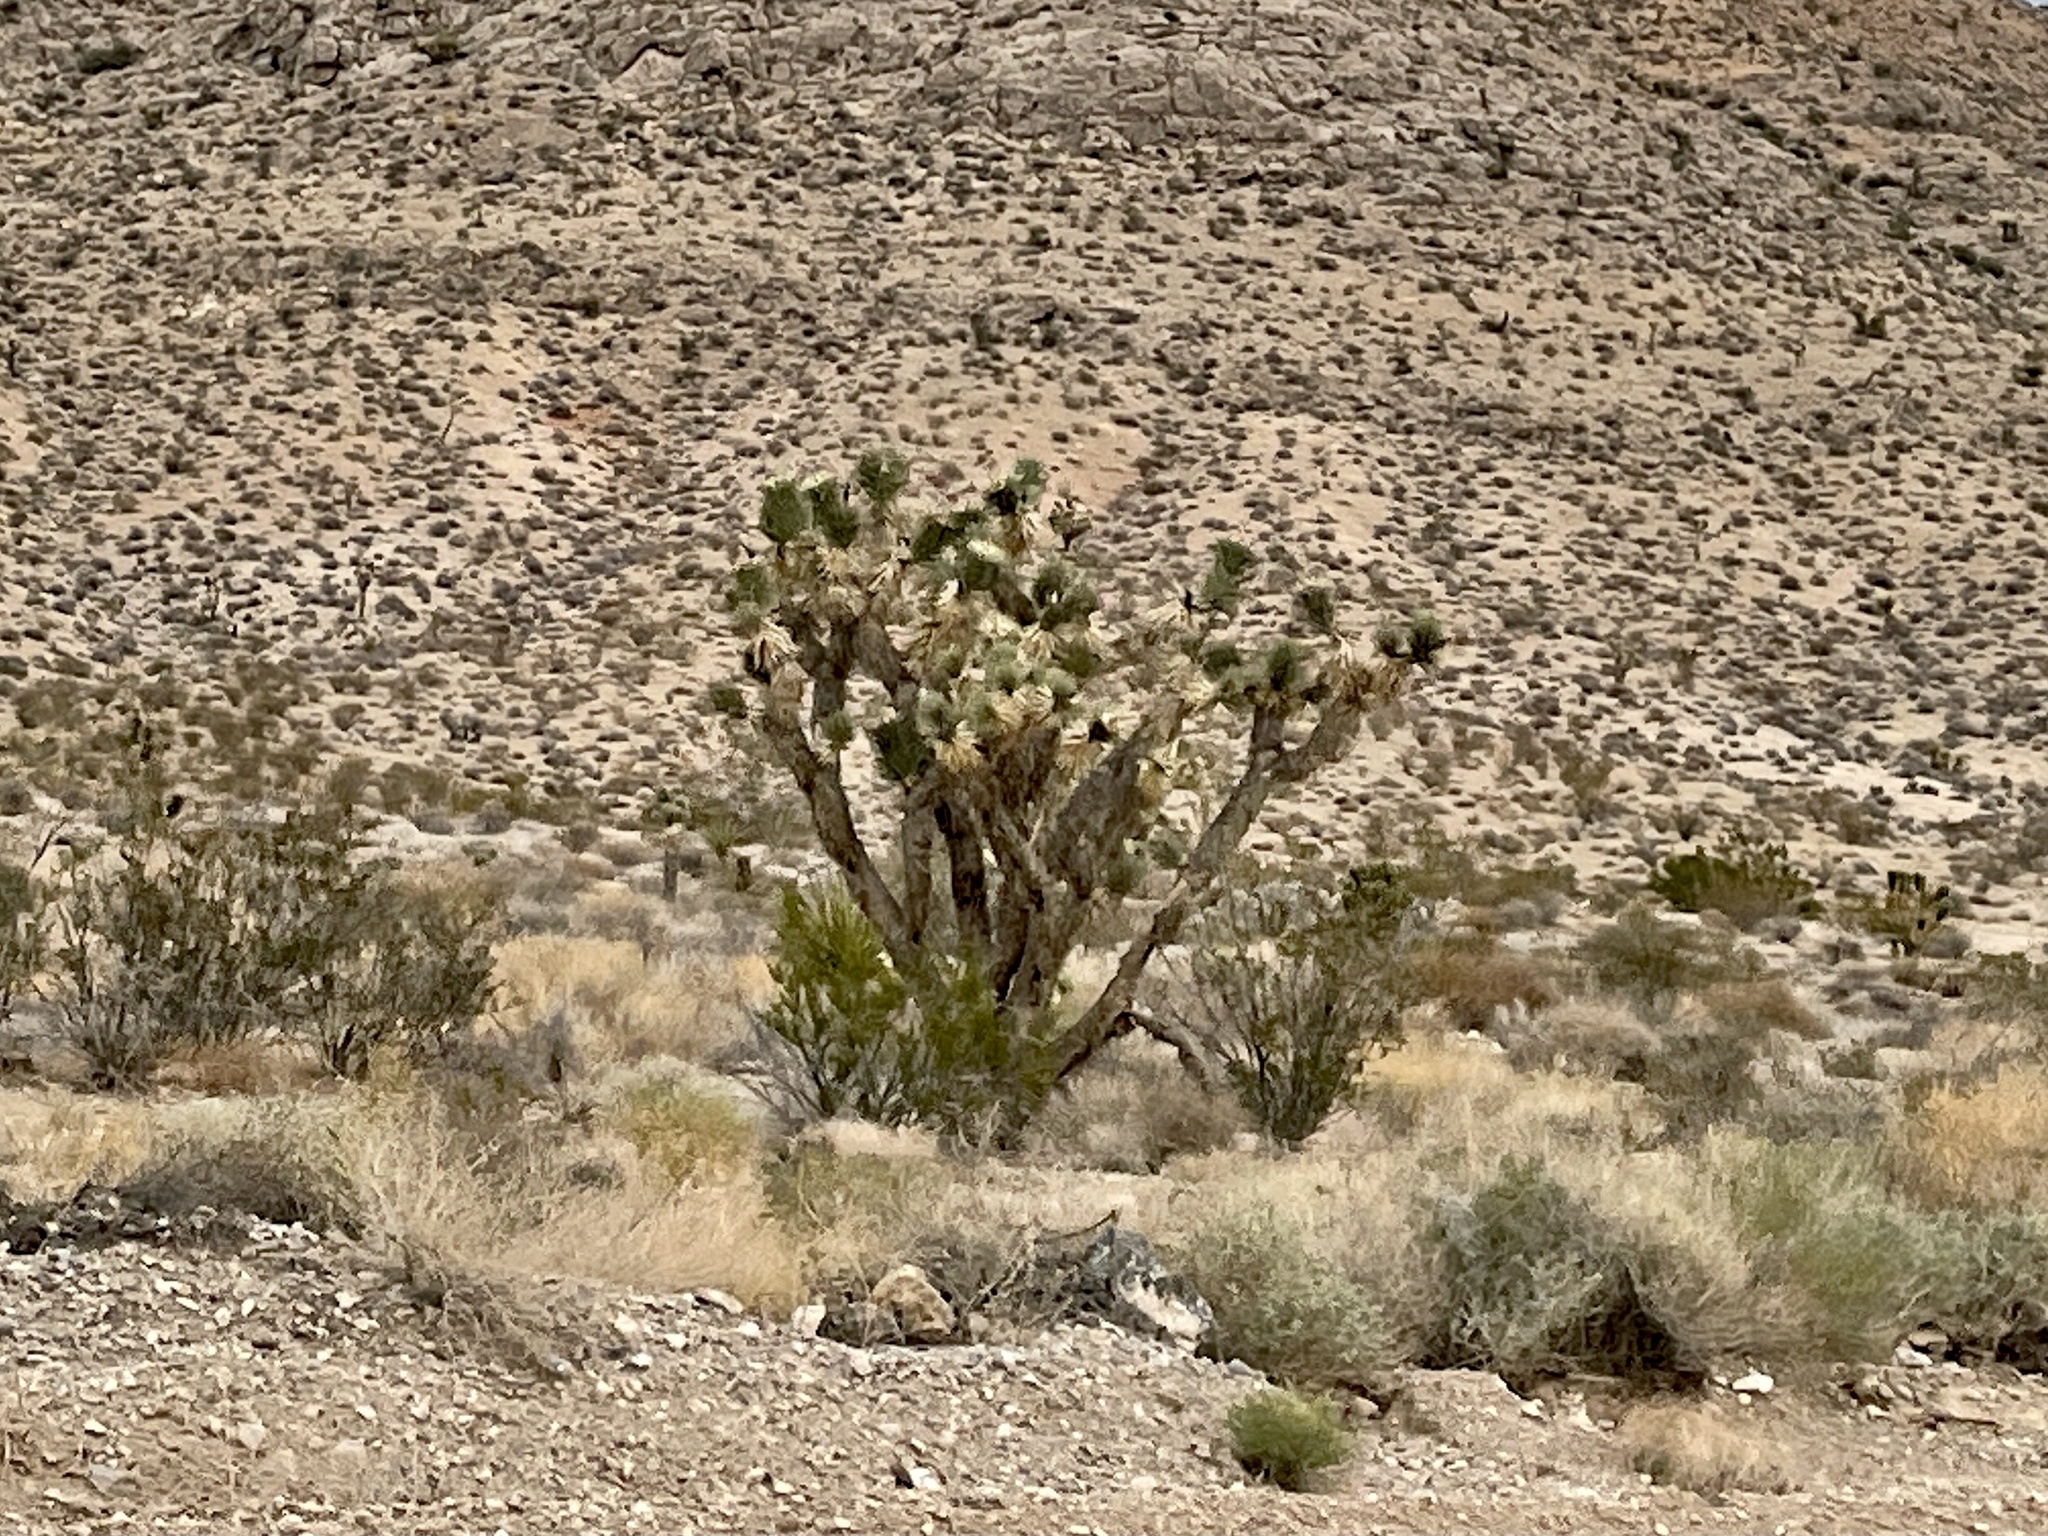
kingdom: Plantae
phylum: Tracheophyta
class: Liliopsida
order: Asparagales
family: Asparagaceae
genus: Yucca
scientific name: Yucca brevifolia
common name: Joshua tree
